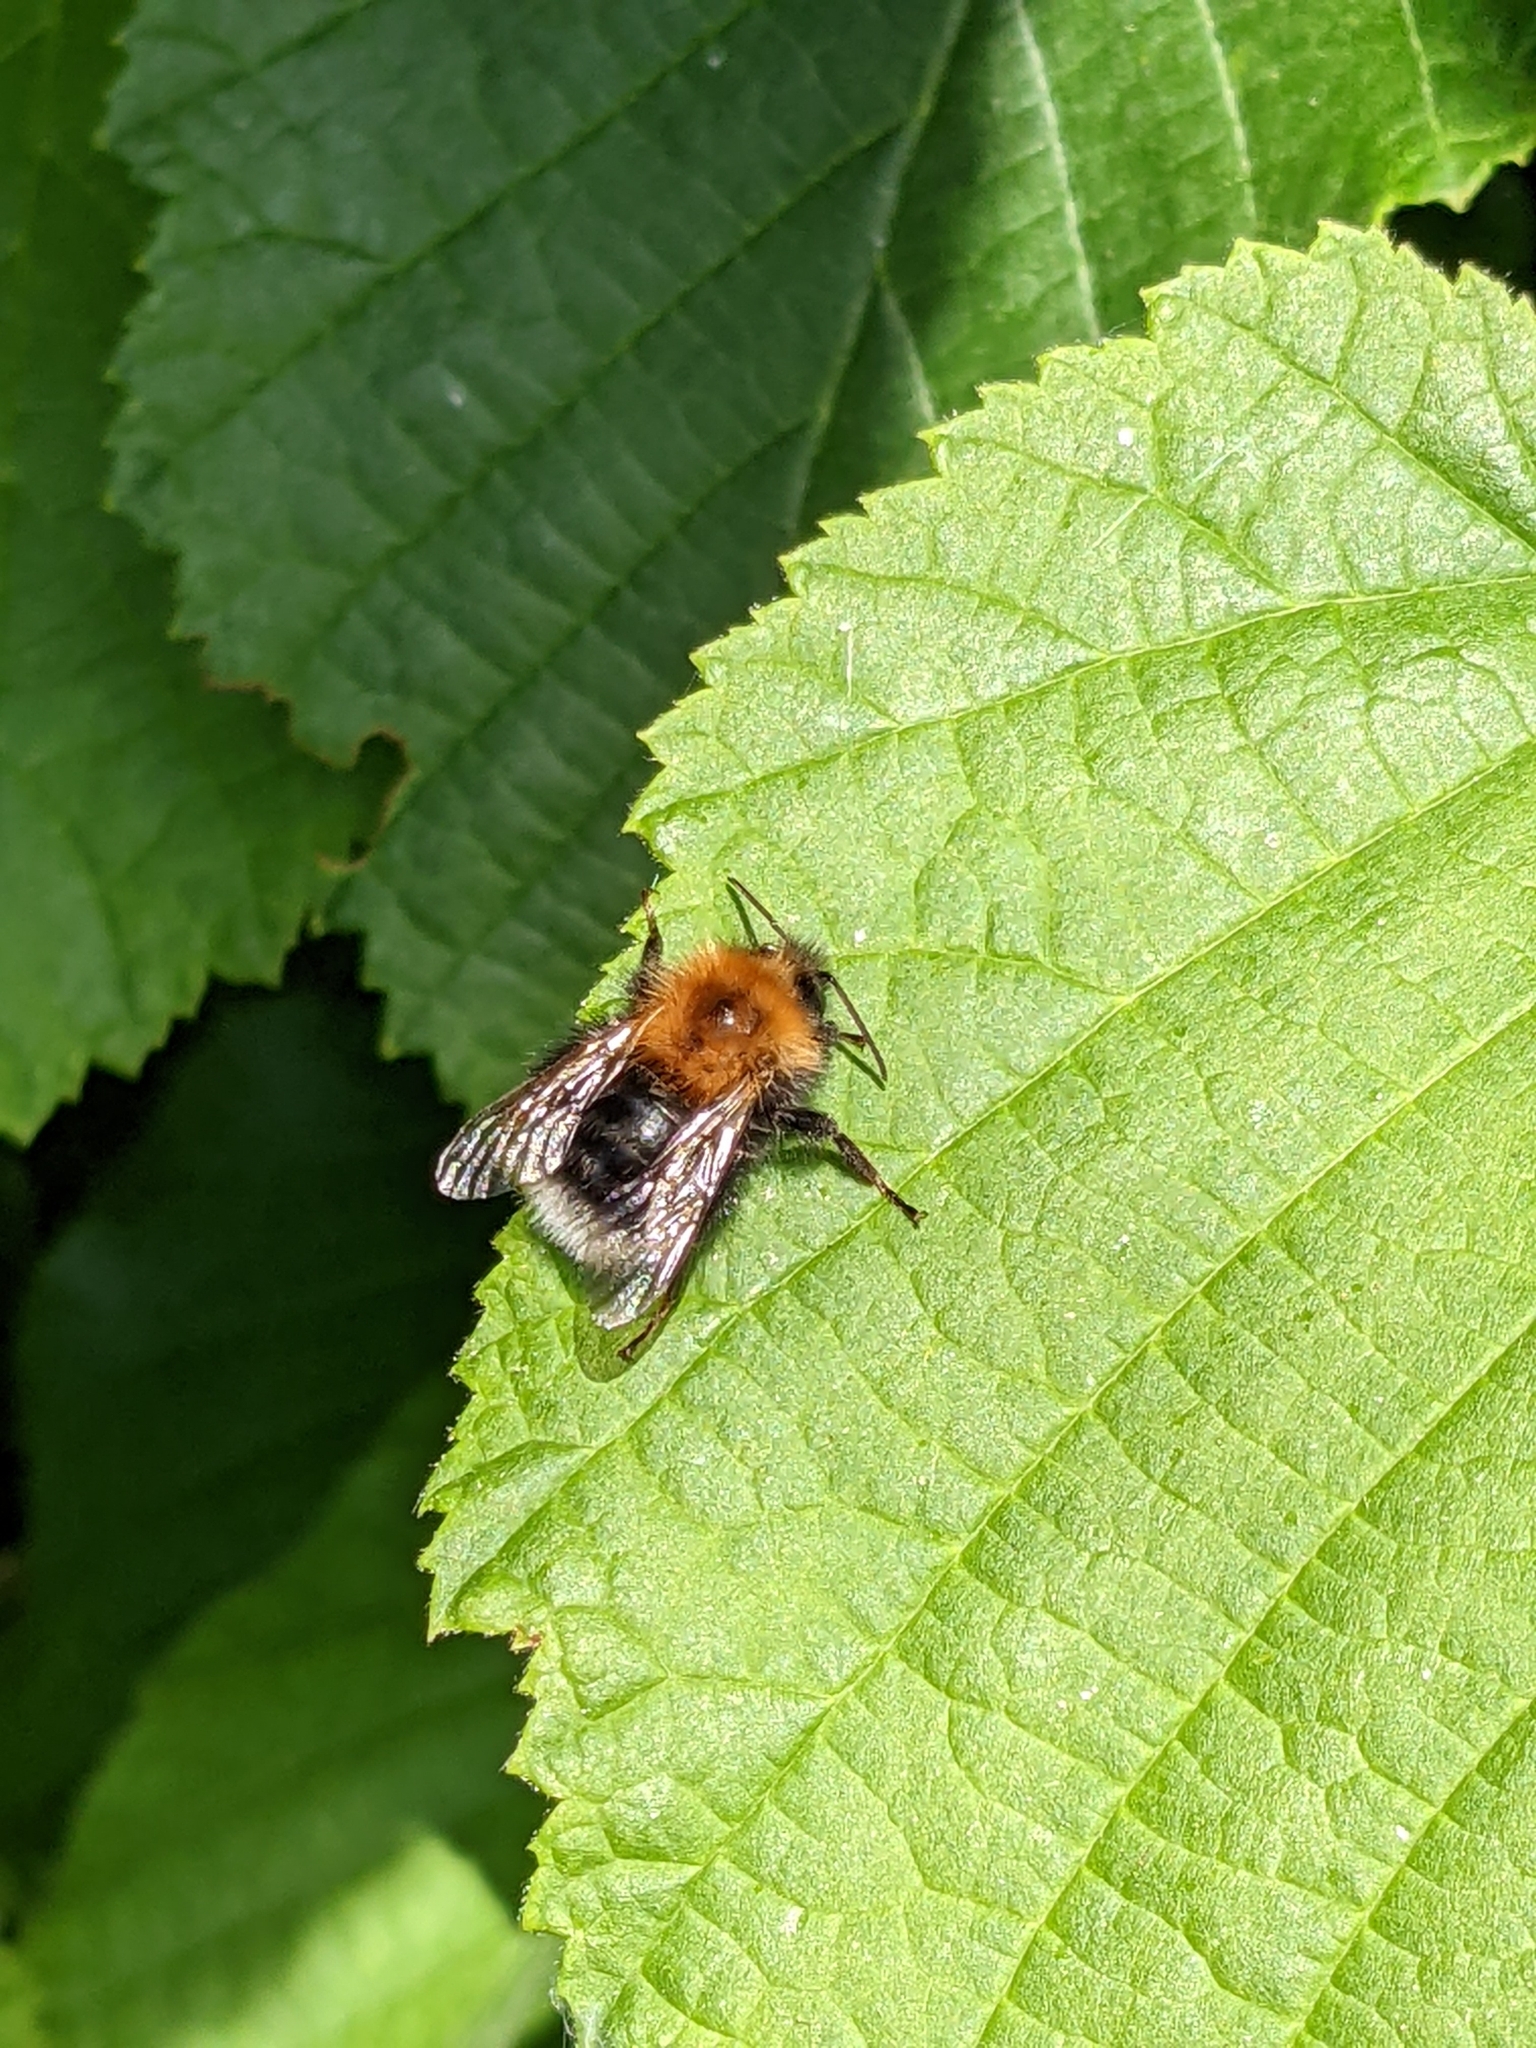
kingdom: Animalia
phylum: Arthropoda
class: Insecta
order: Hymenoptera
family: Apidae
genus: Bombus
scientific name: Bombus hypnorum
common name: New garden bumblebee
